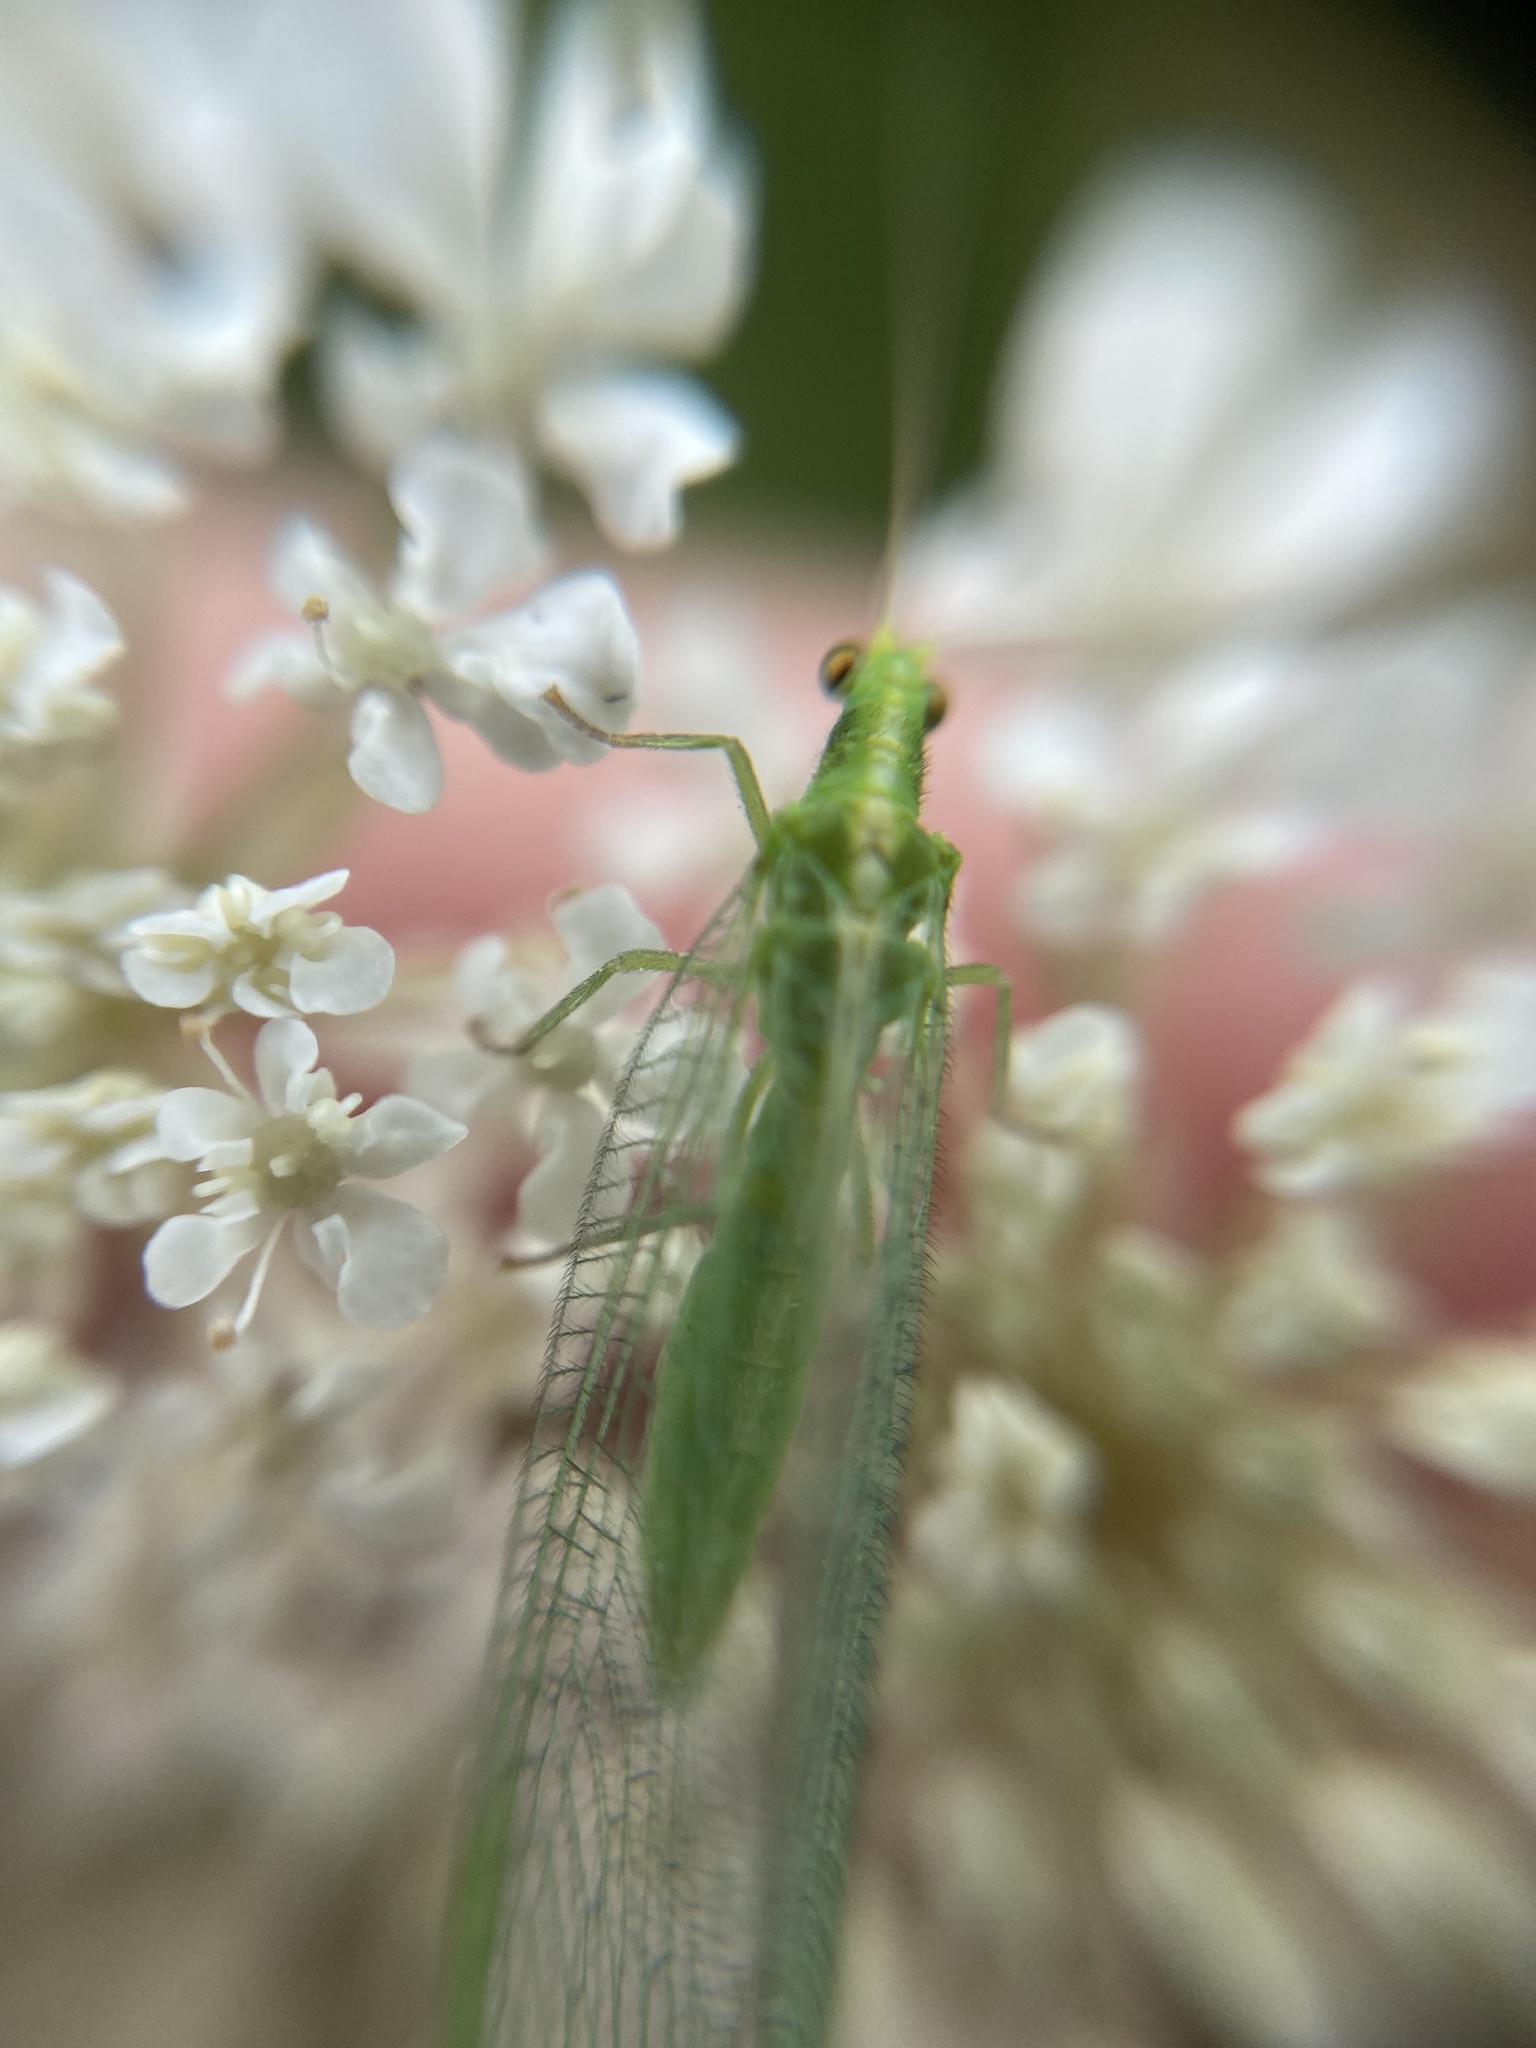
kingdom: Animalia
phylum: Arthropoda
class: Insecta
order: Neuroptera
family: Chrysopidae
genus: Chrysoperla
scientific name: Chrysoperla
